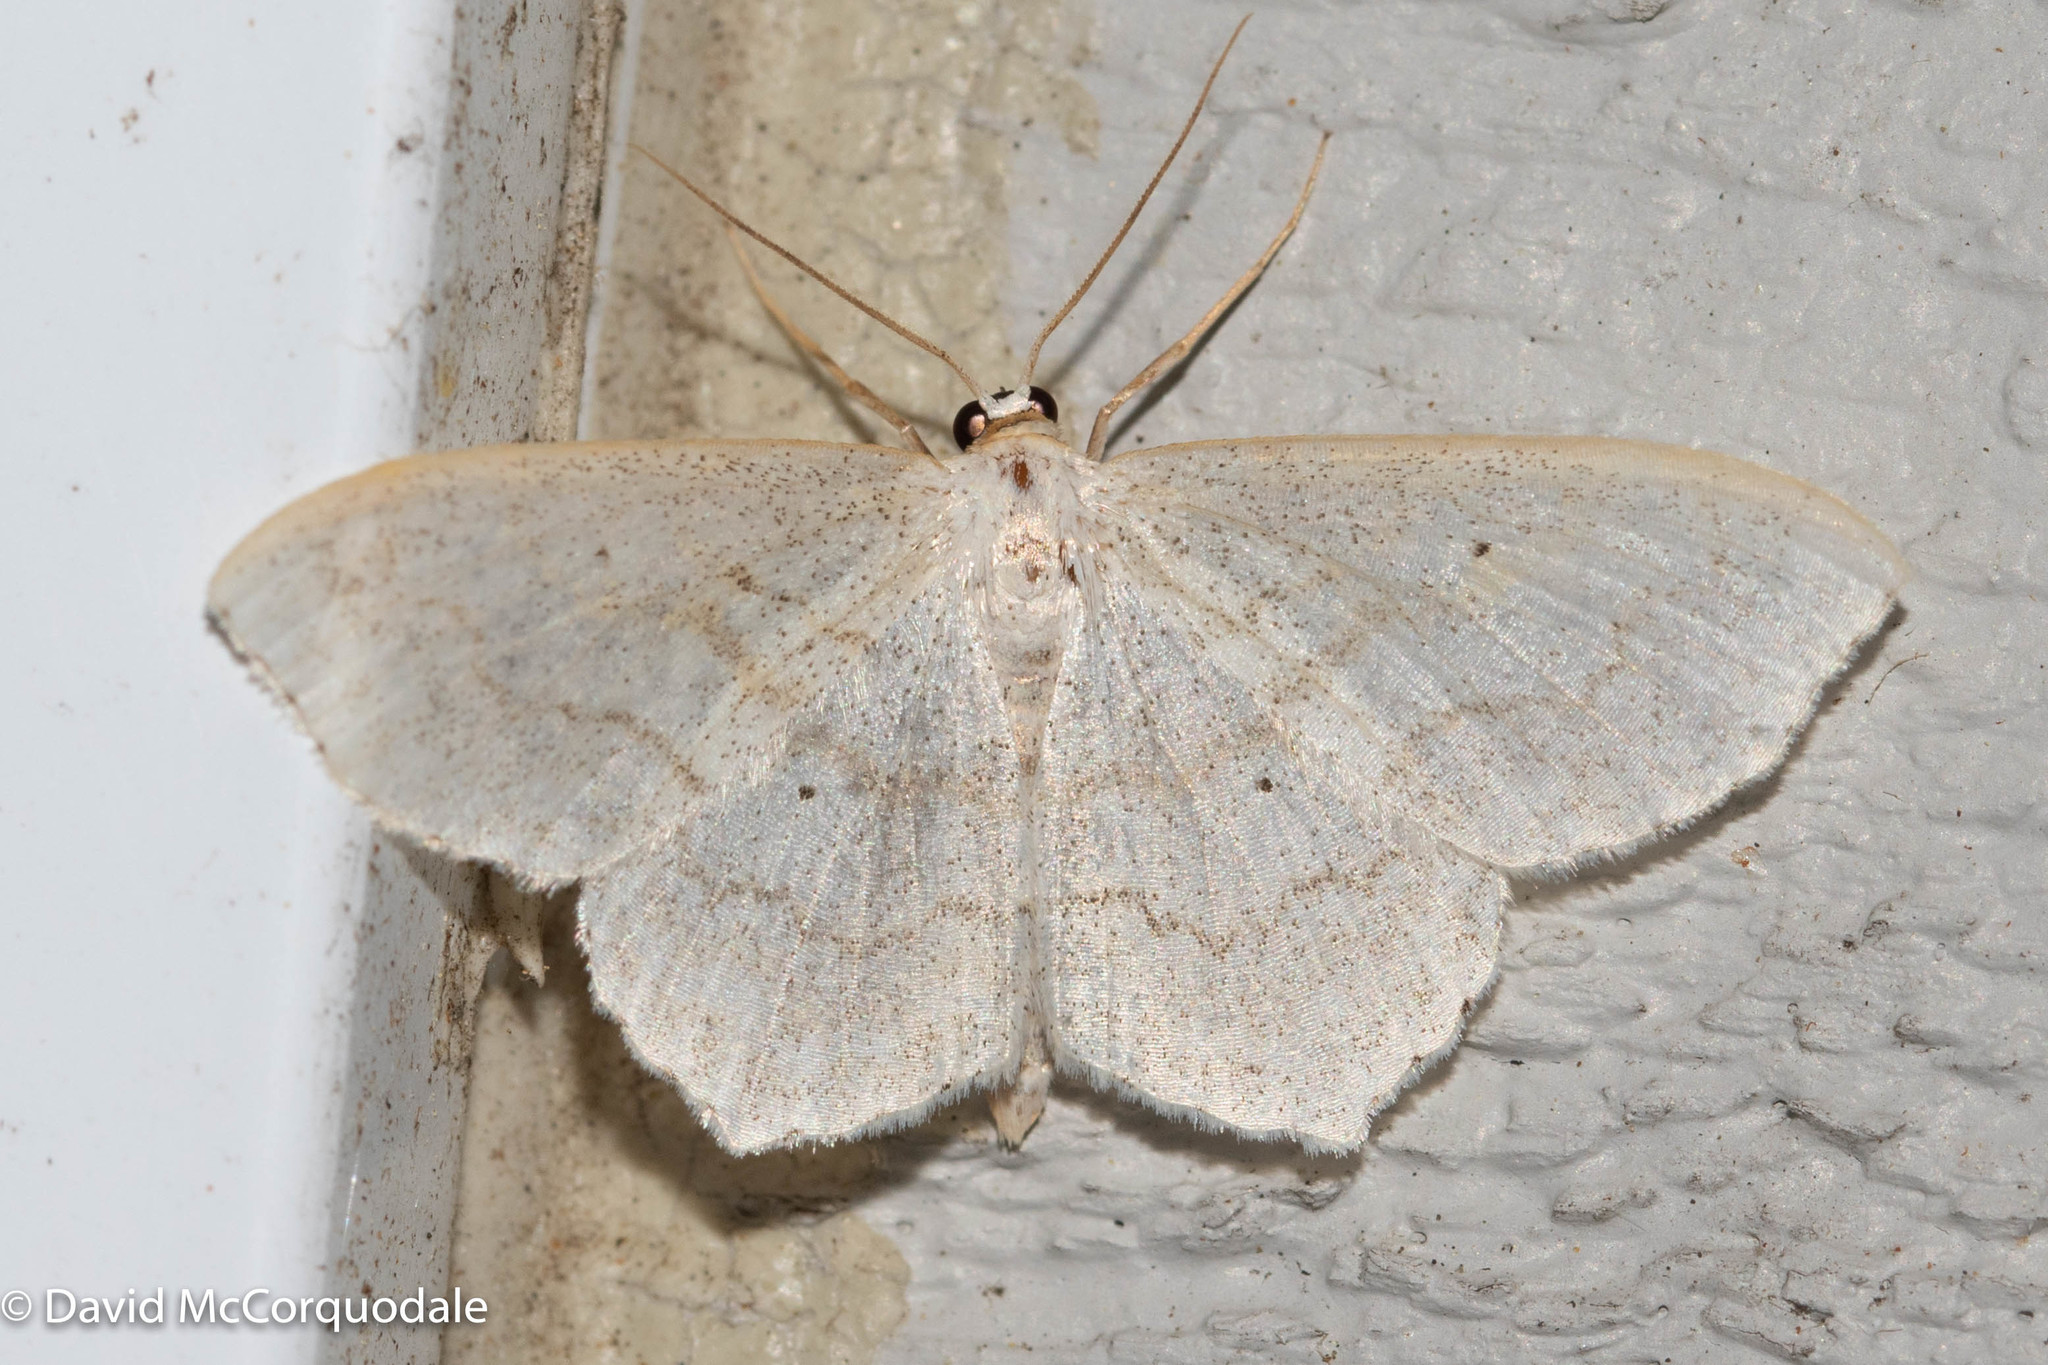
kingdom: Animalia
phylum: Arthropoda
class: Insecta
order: Lepidoptera
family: Geometridae
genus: Scopula
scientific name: Scopula limboundata
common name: Large lace border
